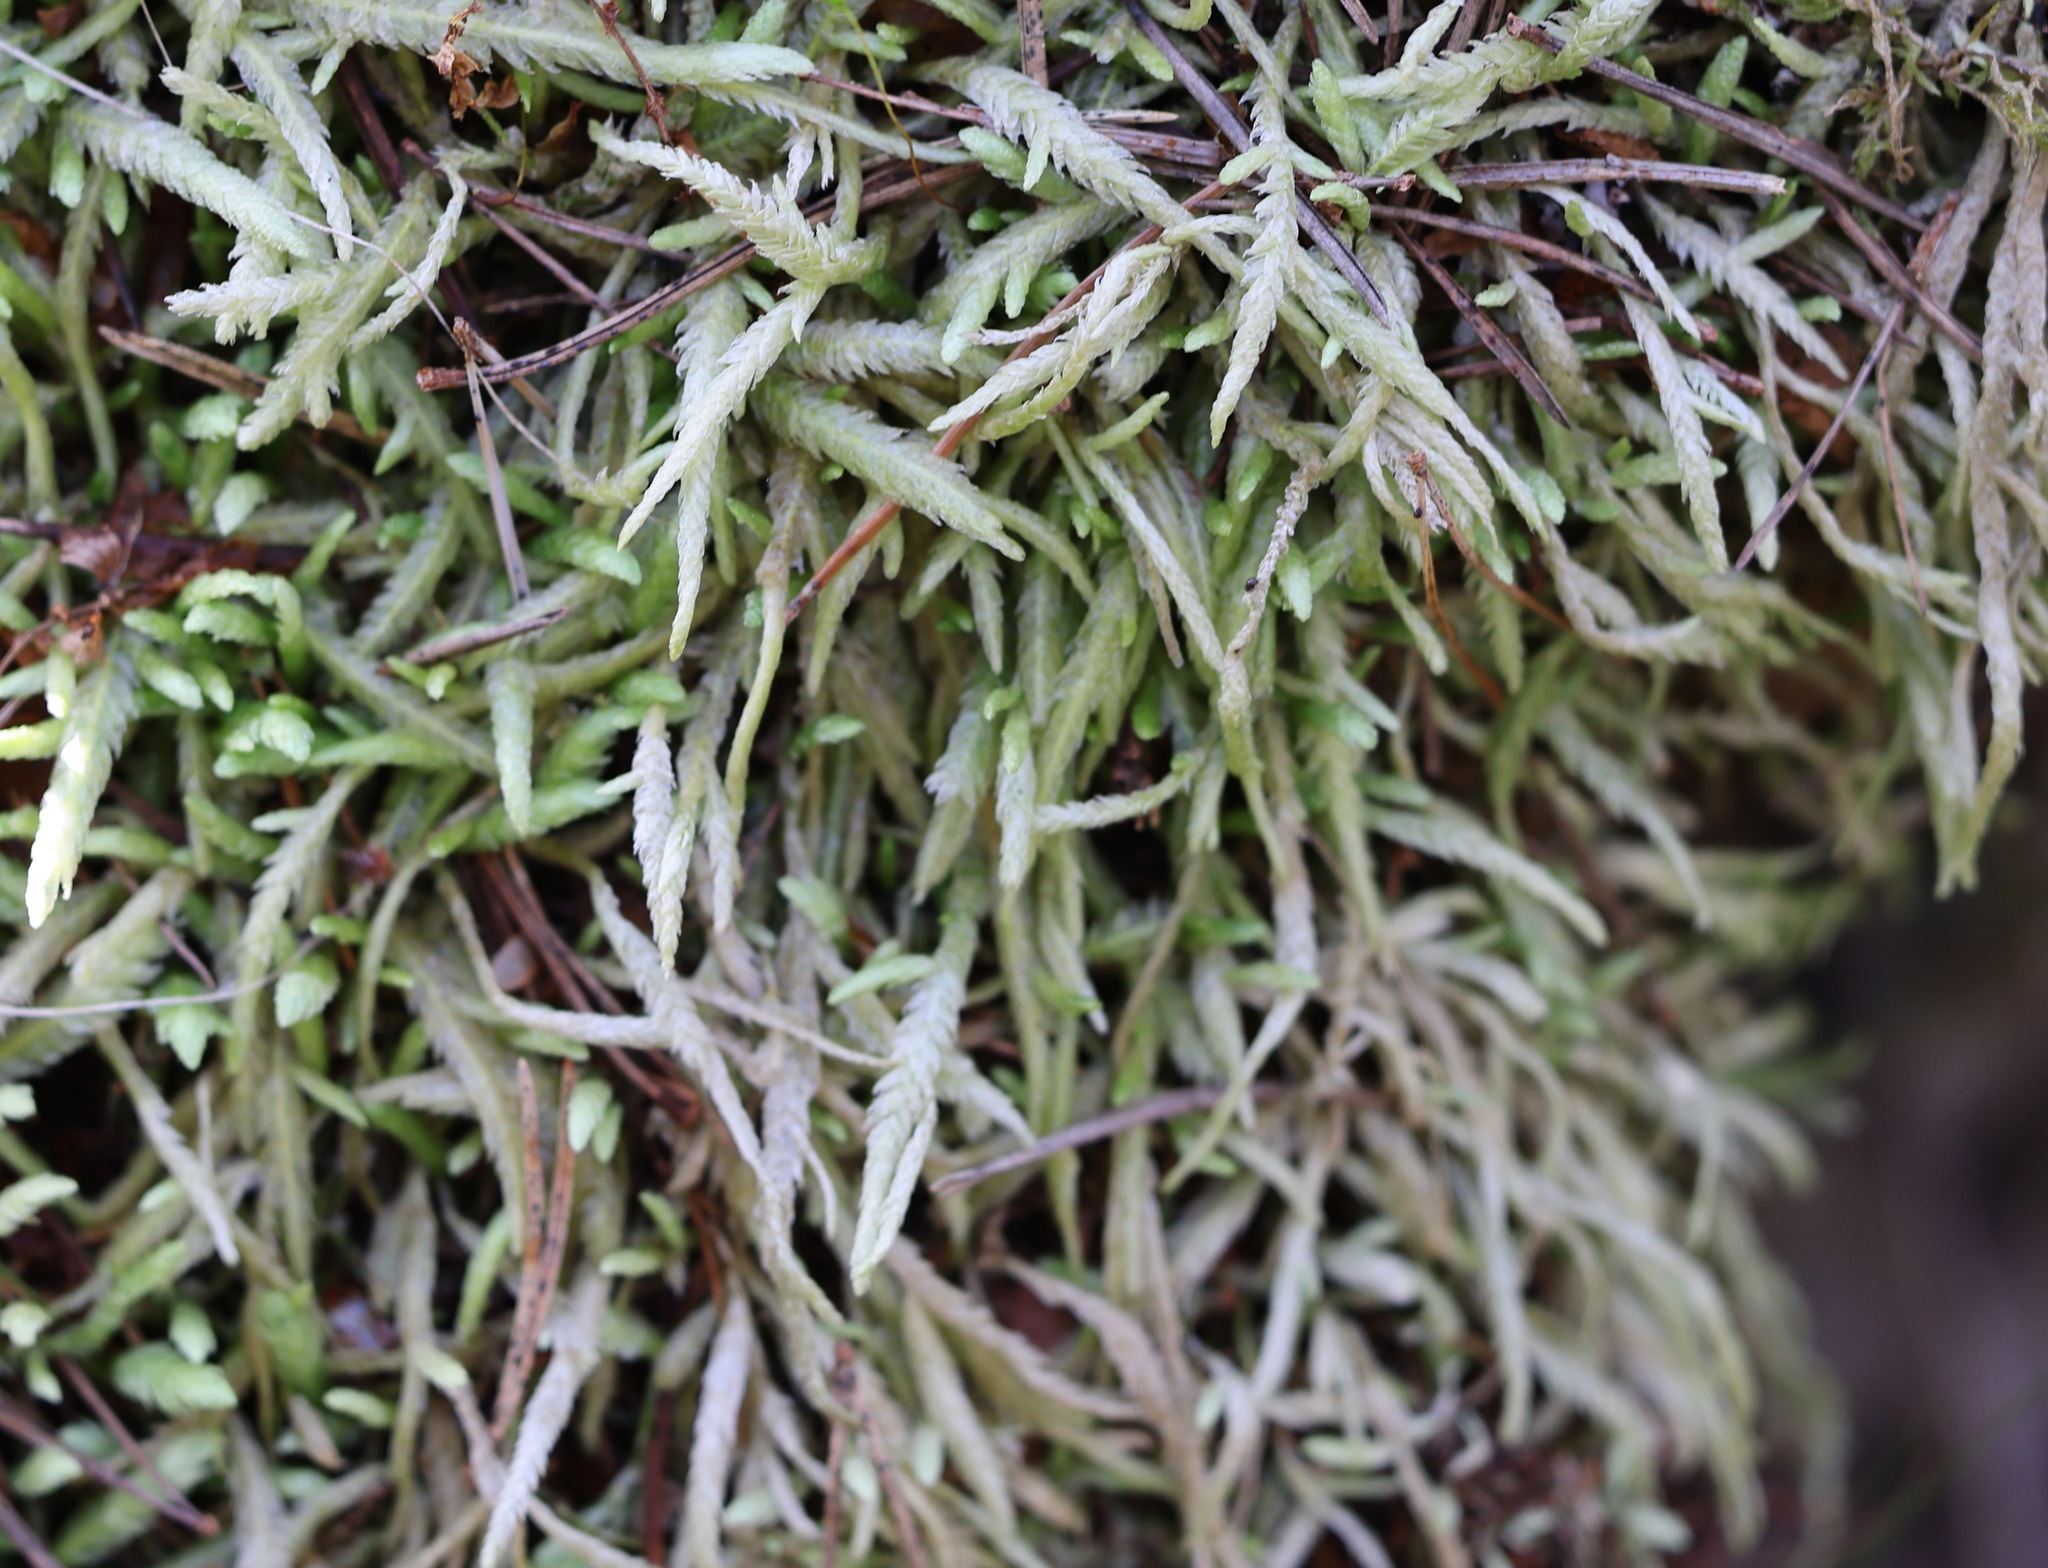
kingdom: Plantae
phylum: Bryophyta
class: Bryopsida
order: Hypnales
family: Plagiotheciaceae
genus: Plagiothecium
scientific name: Plagiothecium undulatum
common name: Waved silk-moss
